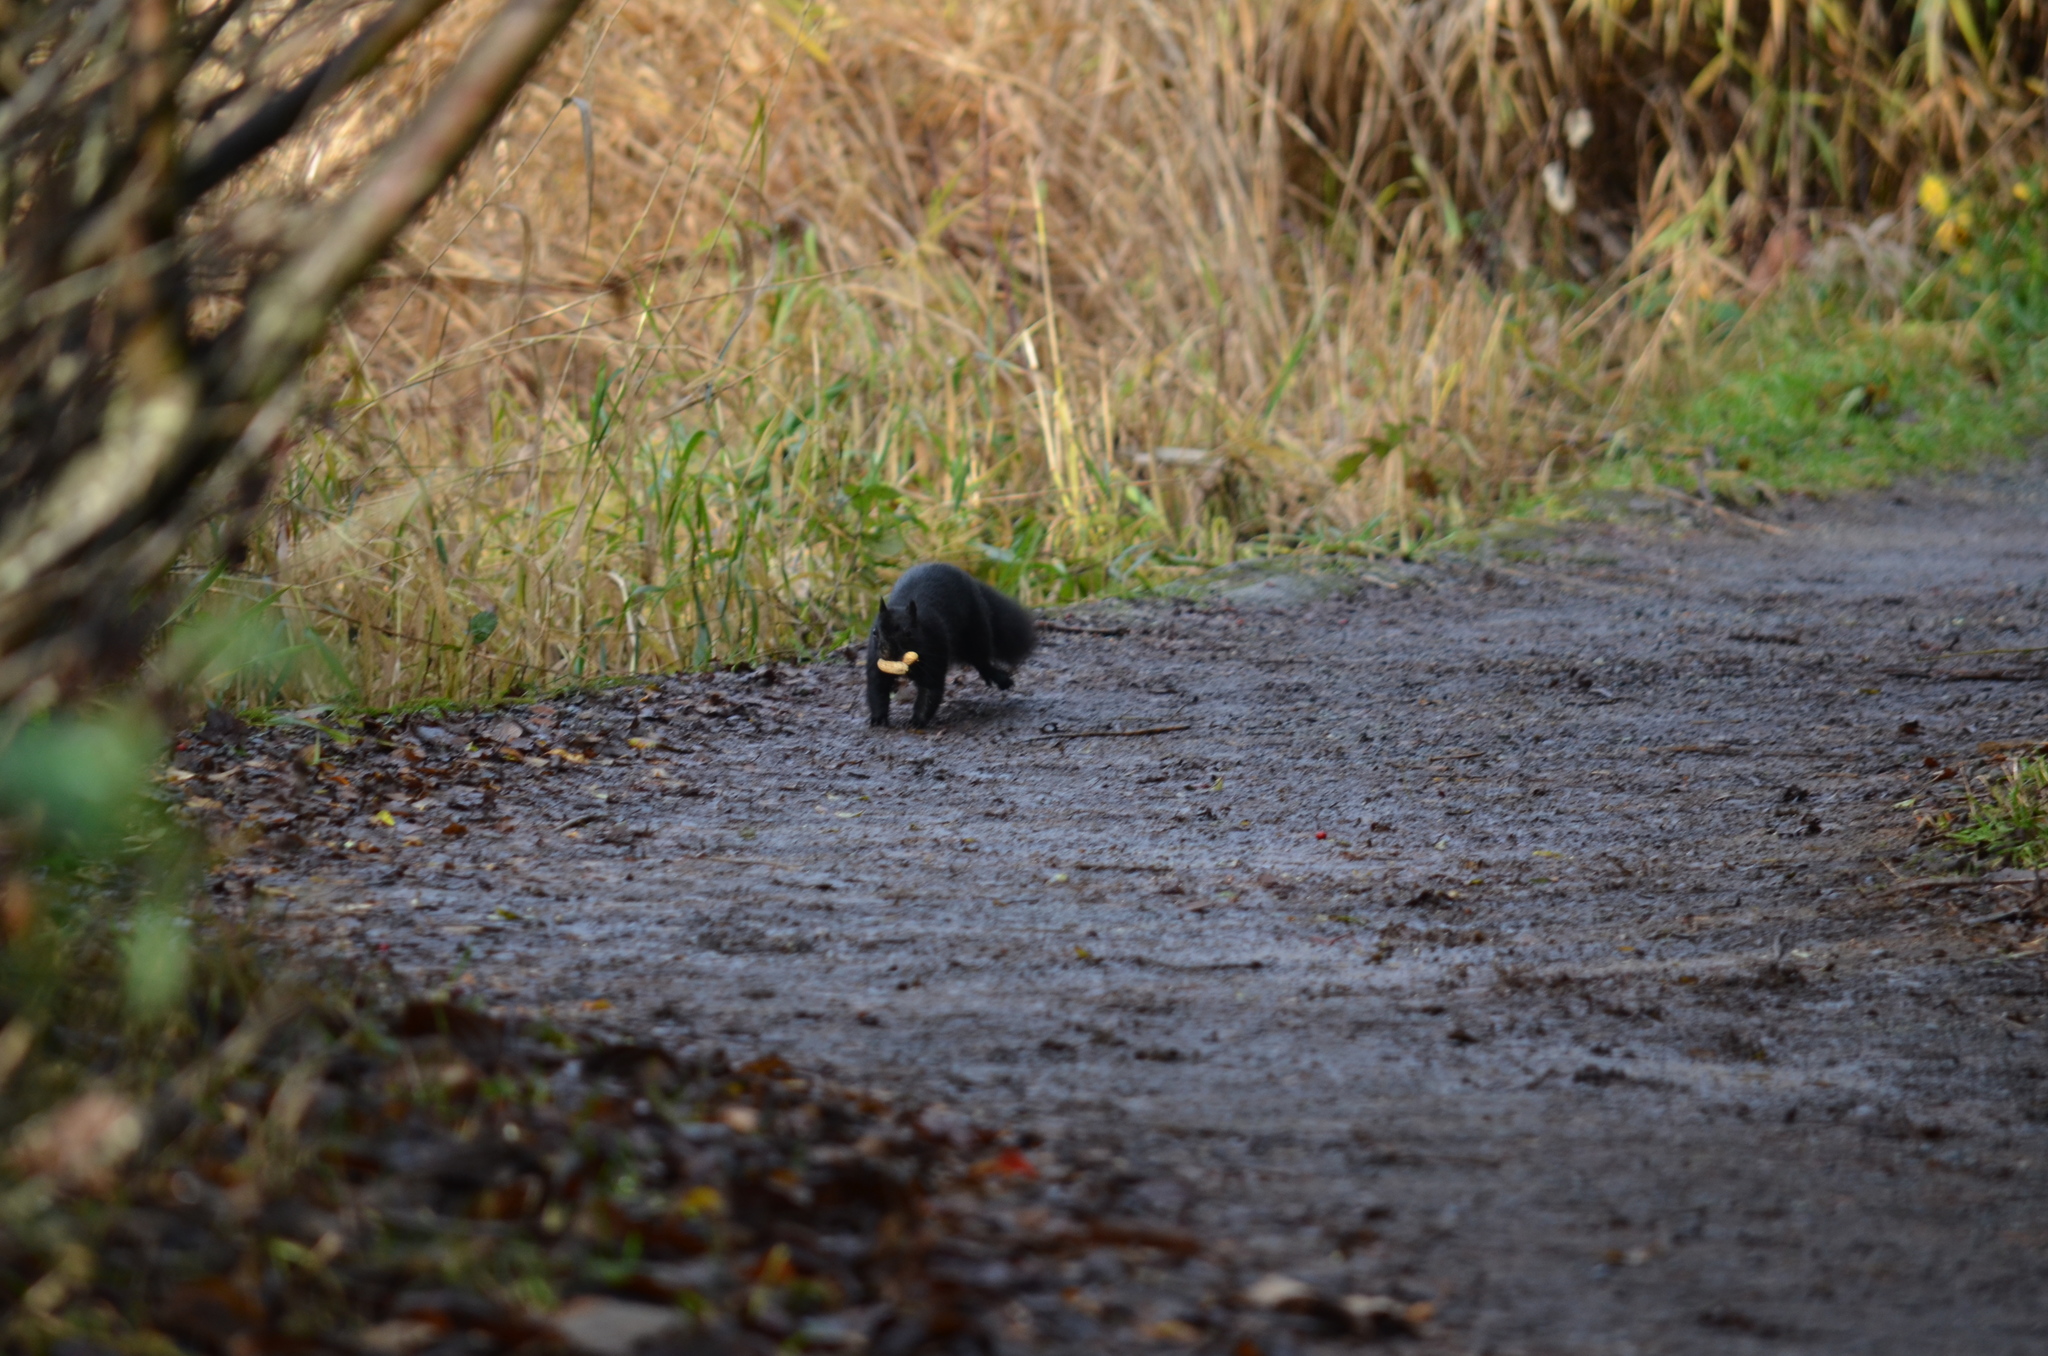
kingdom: Animalia
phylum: Chordata
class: Mammalia
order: Rodentia
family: Sciuridae
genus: Sciurus
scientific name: Sciurus carolinensis
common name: Eastern gray squirrel
